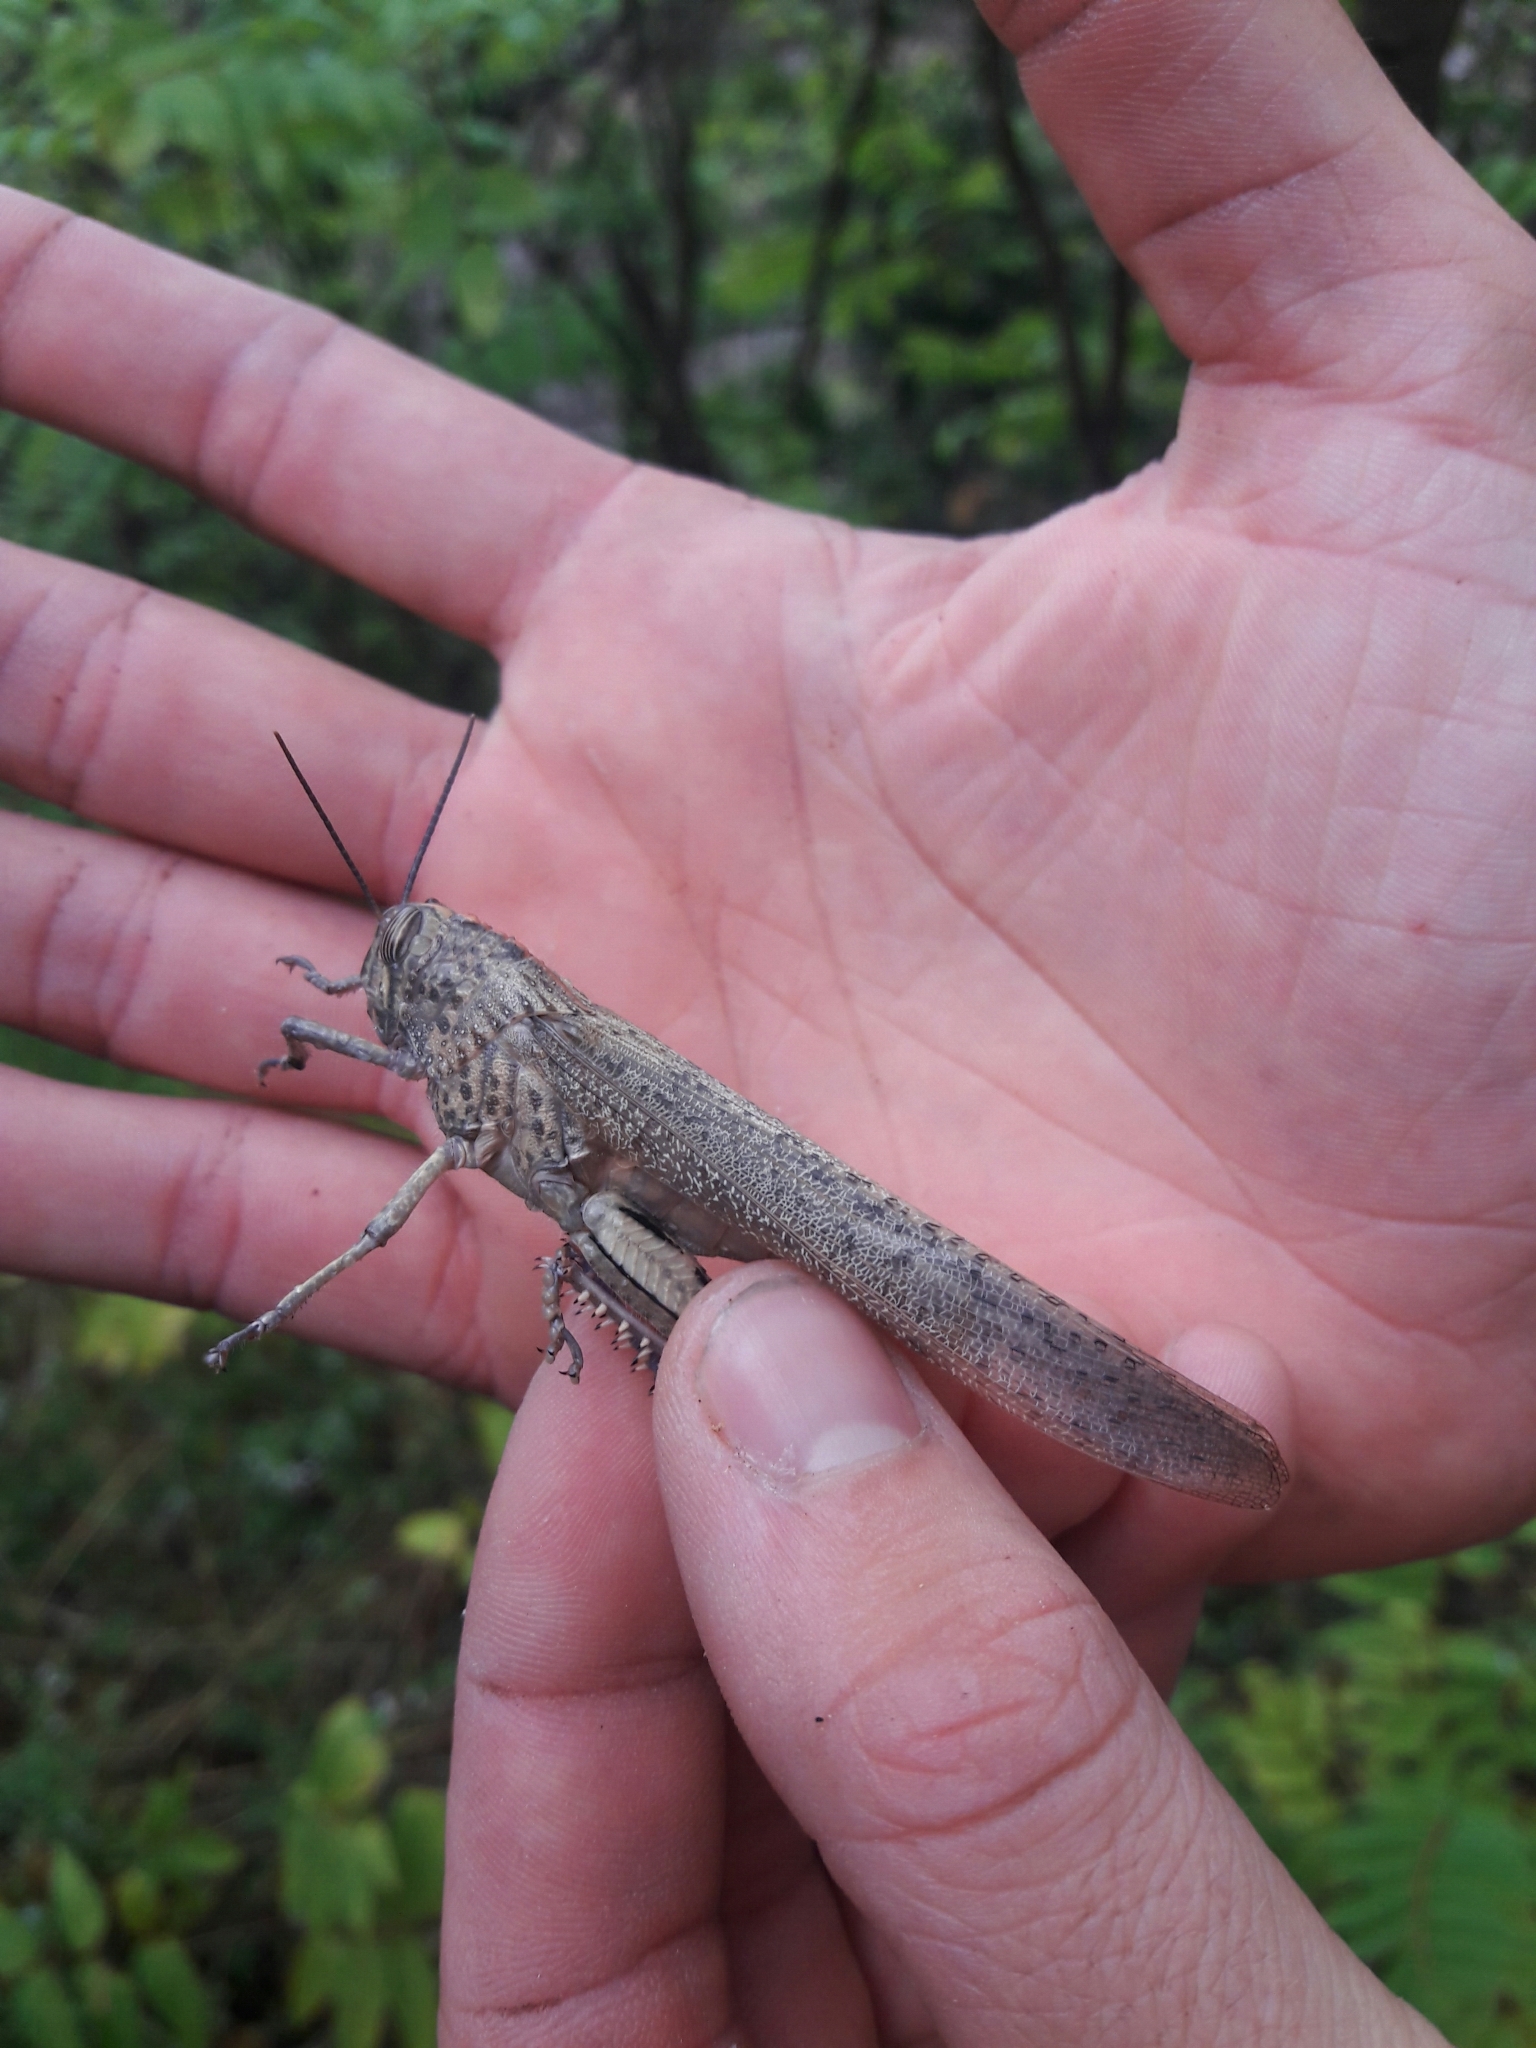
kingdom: Animalia
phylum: Arthropoda
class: Insecta
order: Orthoptera
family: Acrididae
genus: Anacridium
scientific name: Anacridium aegyptium
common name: Egyptian grasshopper
